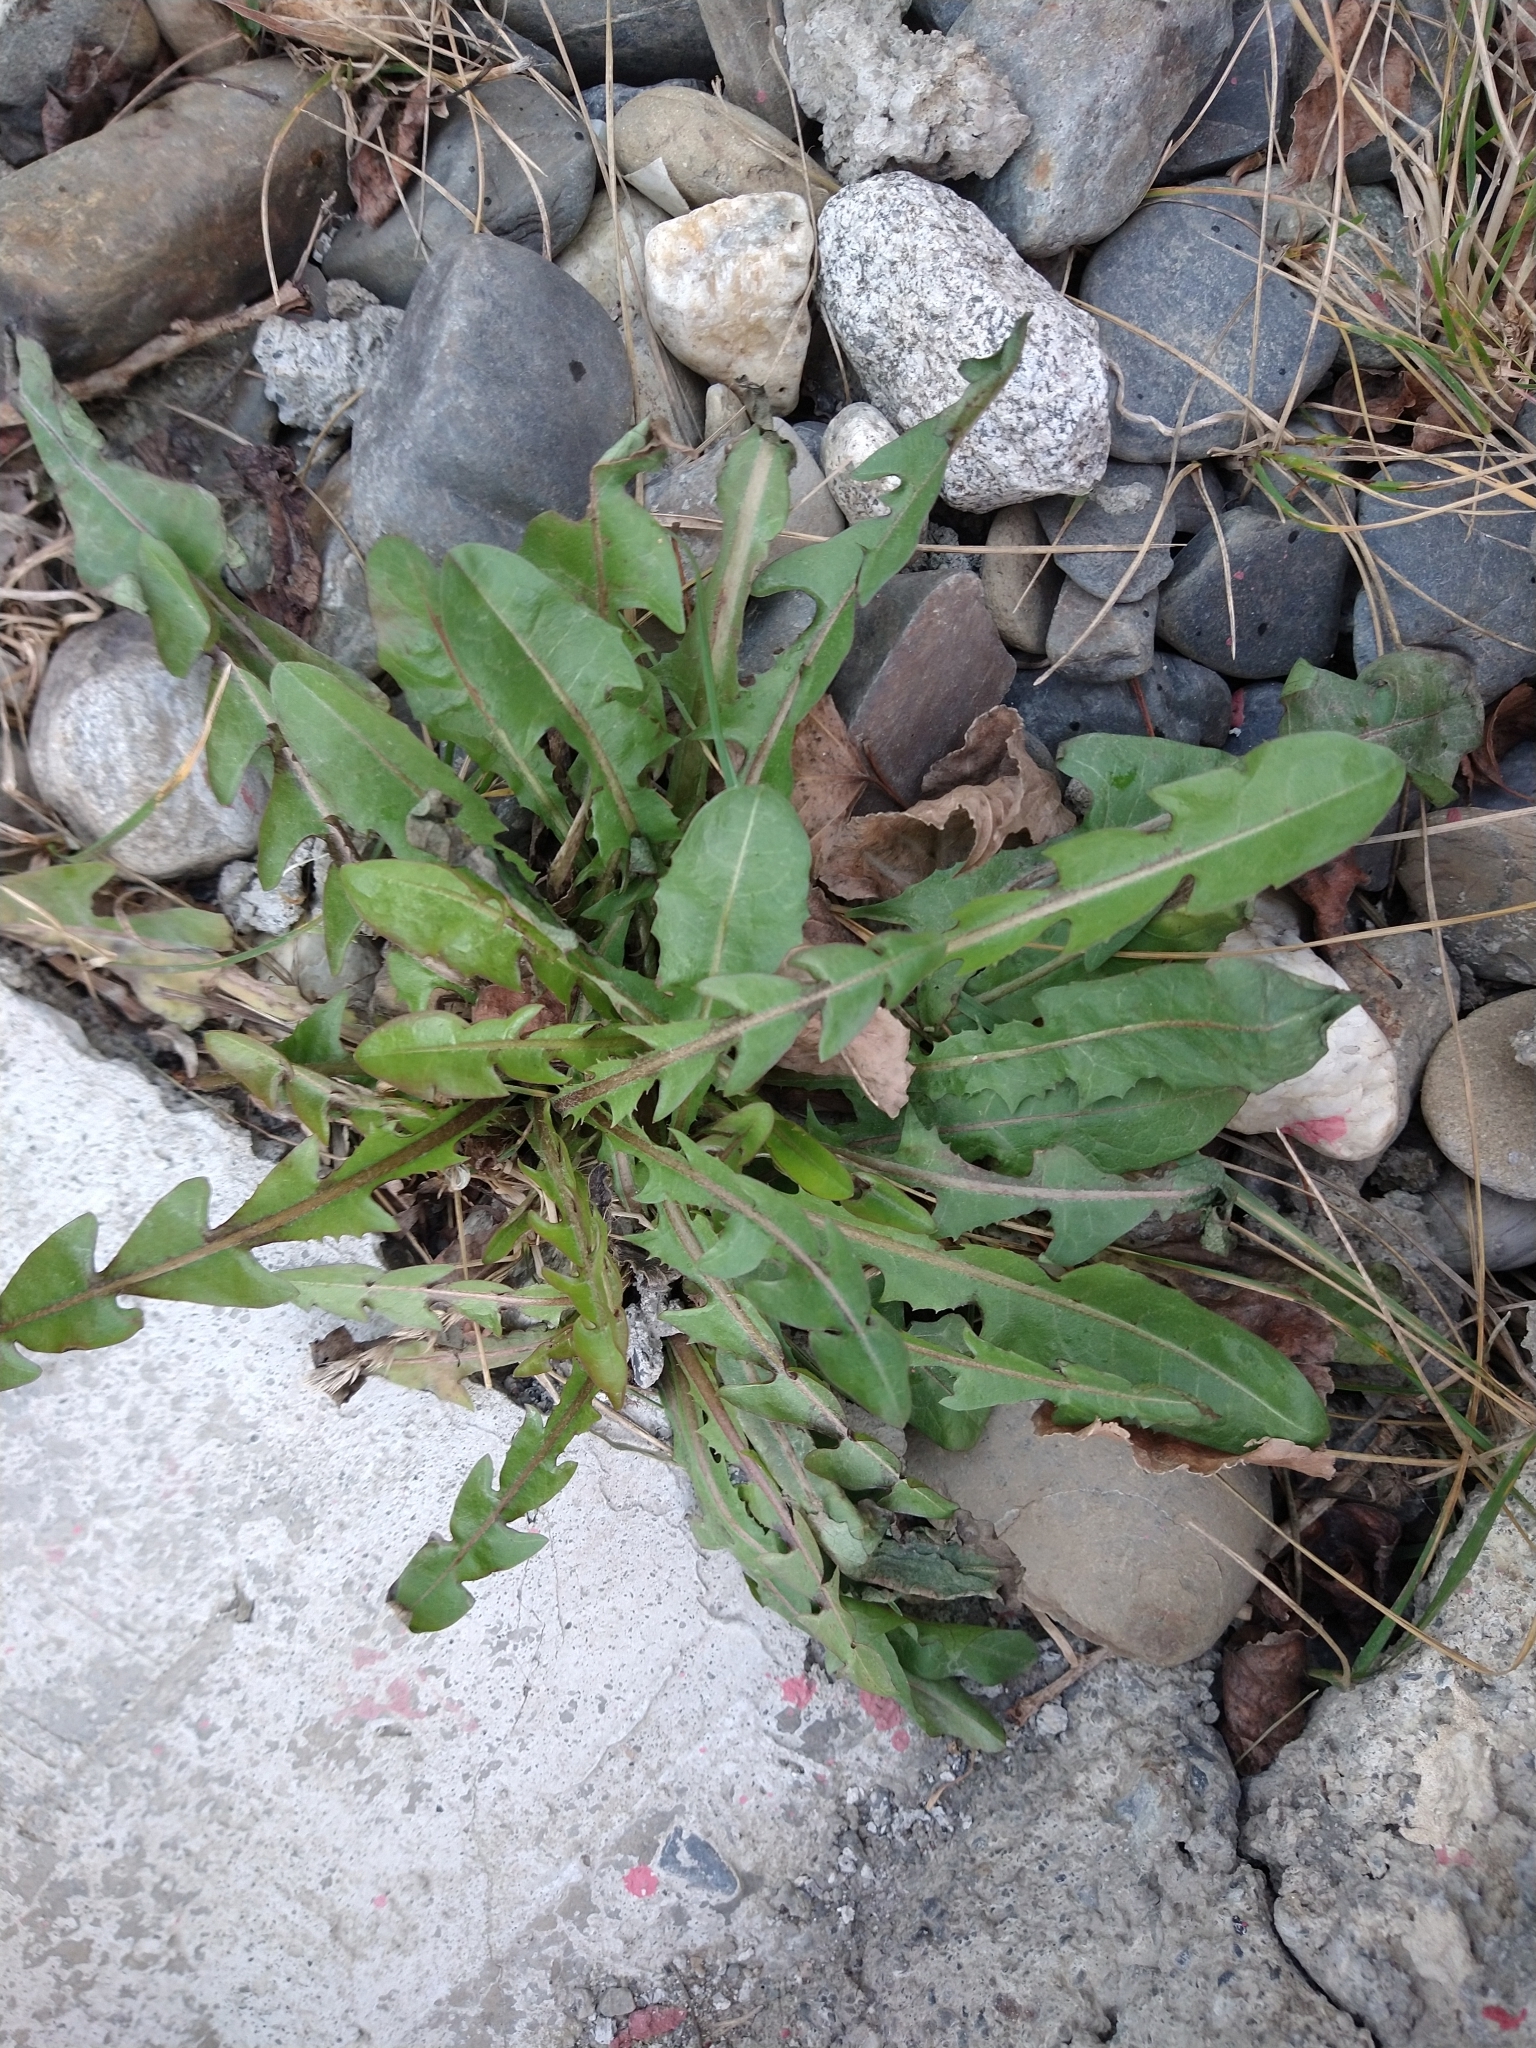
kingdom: Plantae
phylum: Tracheophyta
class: Magnoliopsida
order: Asterales
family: Asteraceae
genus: Taraxacum
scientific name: Taraxacum officinale
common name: Common dandelion
